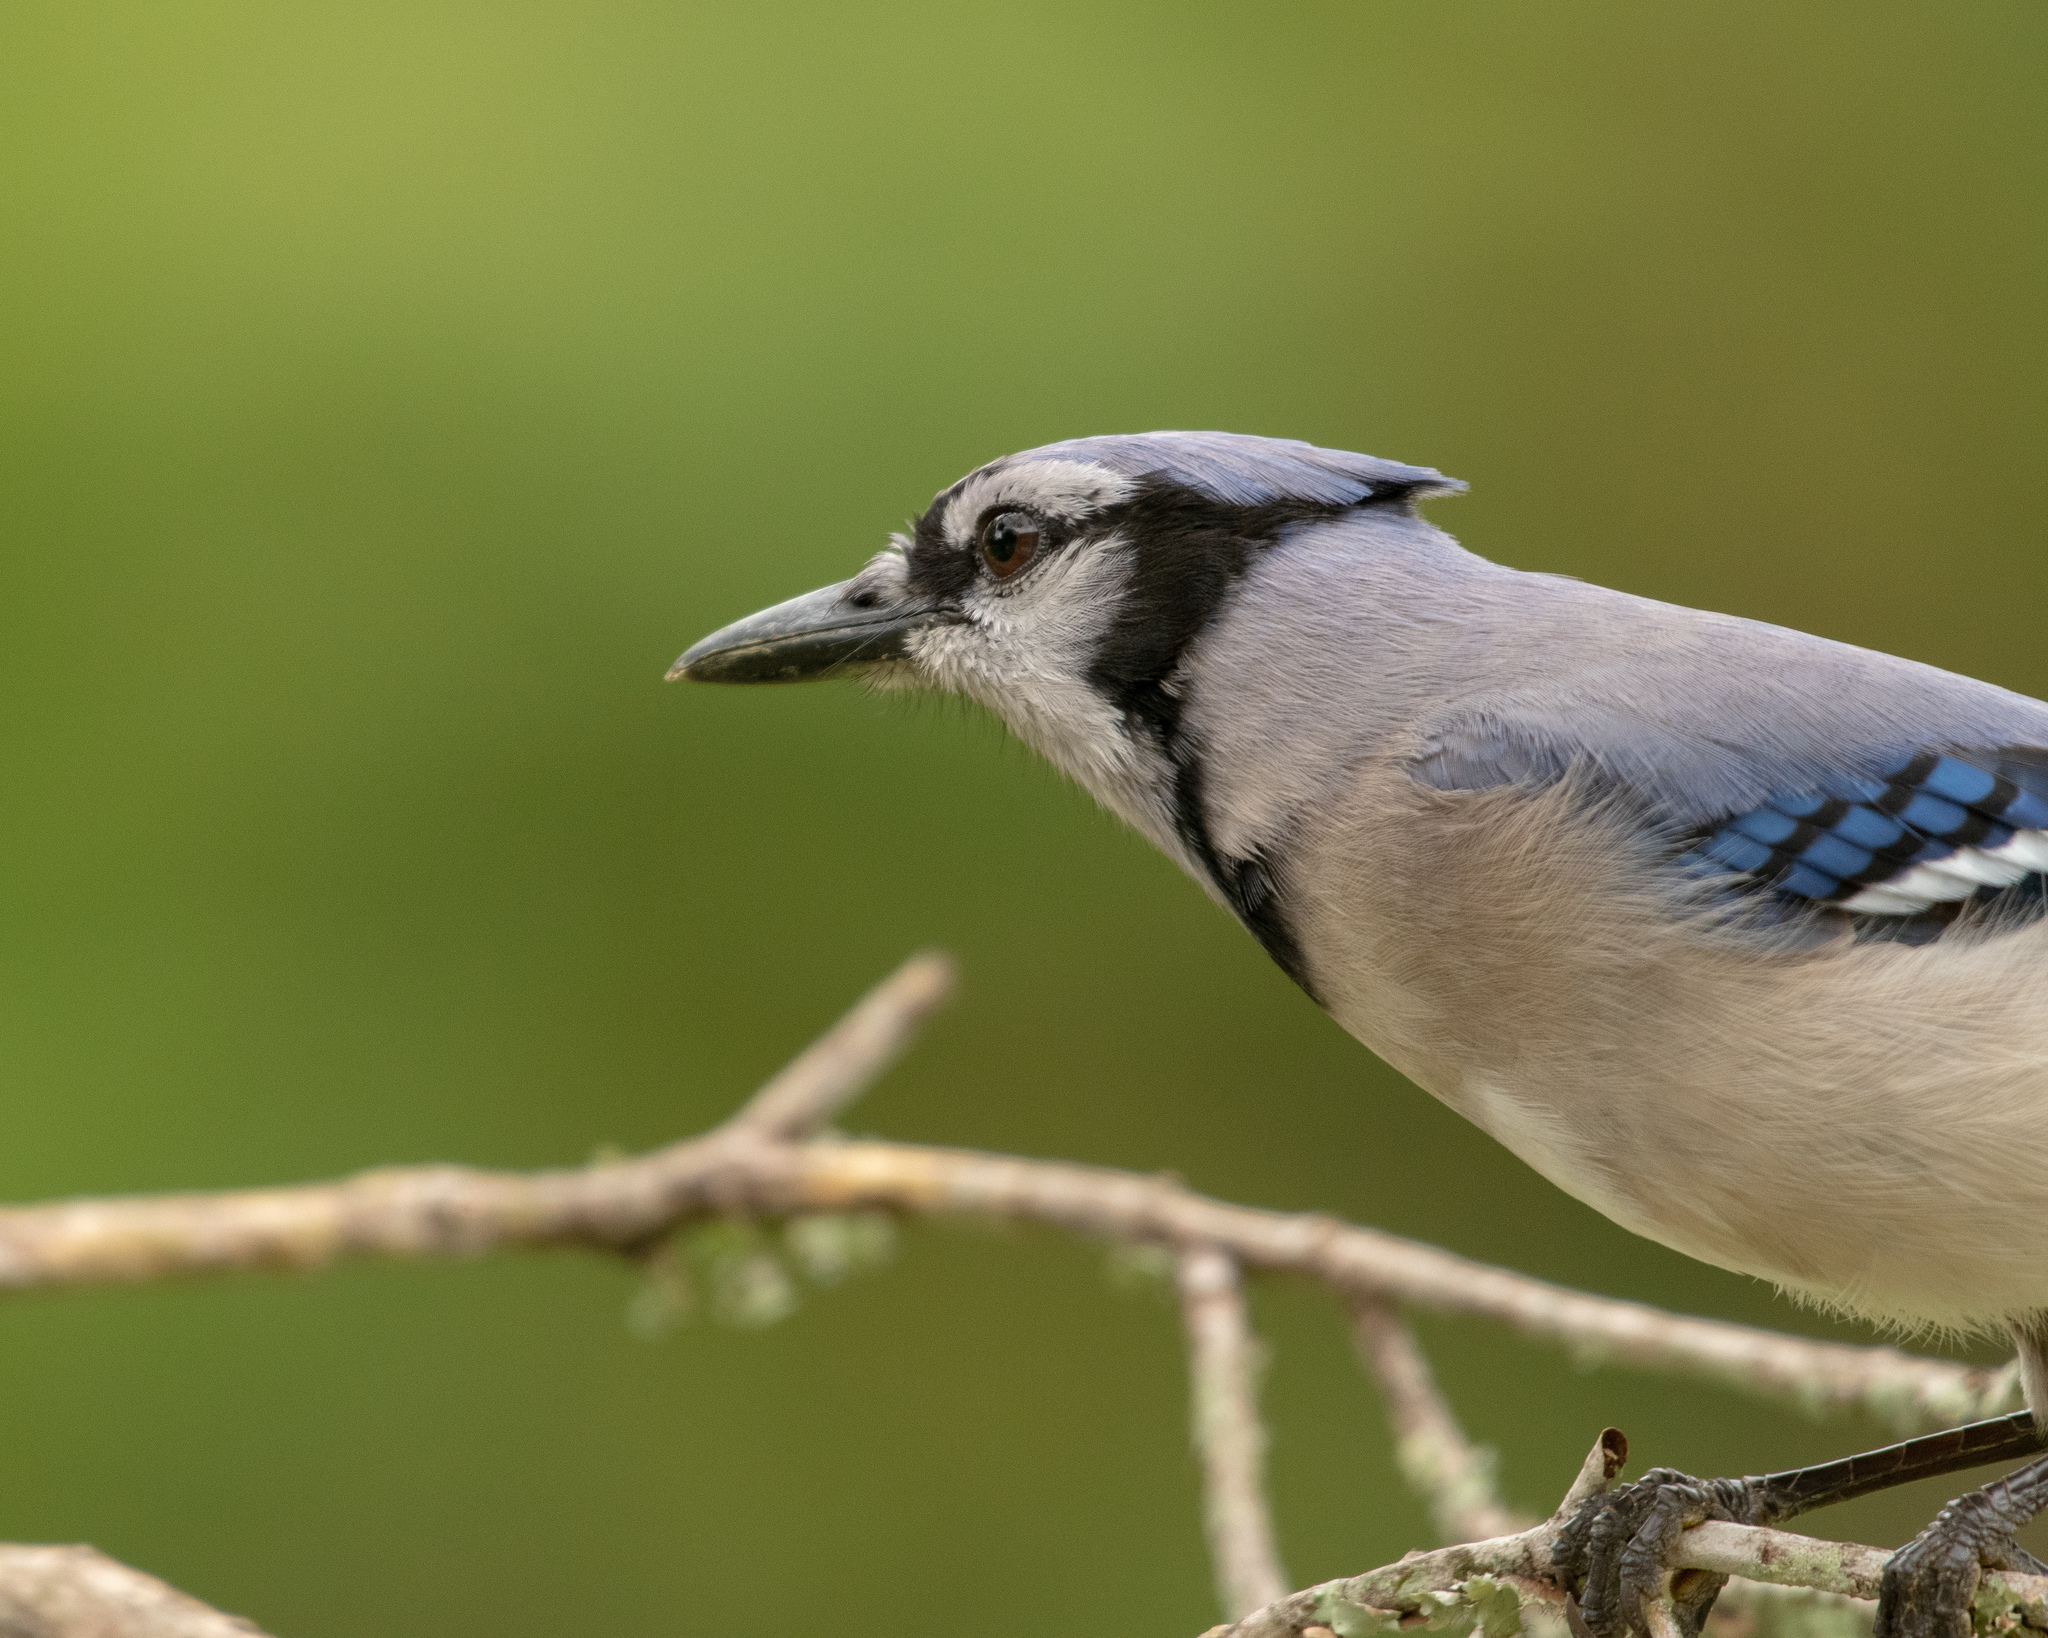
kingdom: Animalia
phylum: Chordata
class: Aves
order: Passeriformes
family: Corvidae
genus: Cyanocitta
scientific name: Cyanocitta cristata
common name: Blue jay
